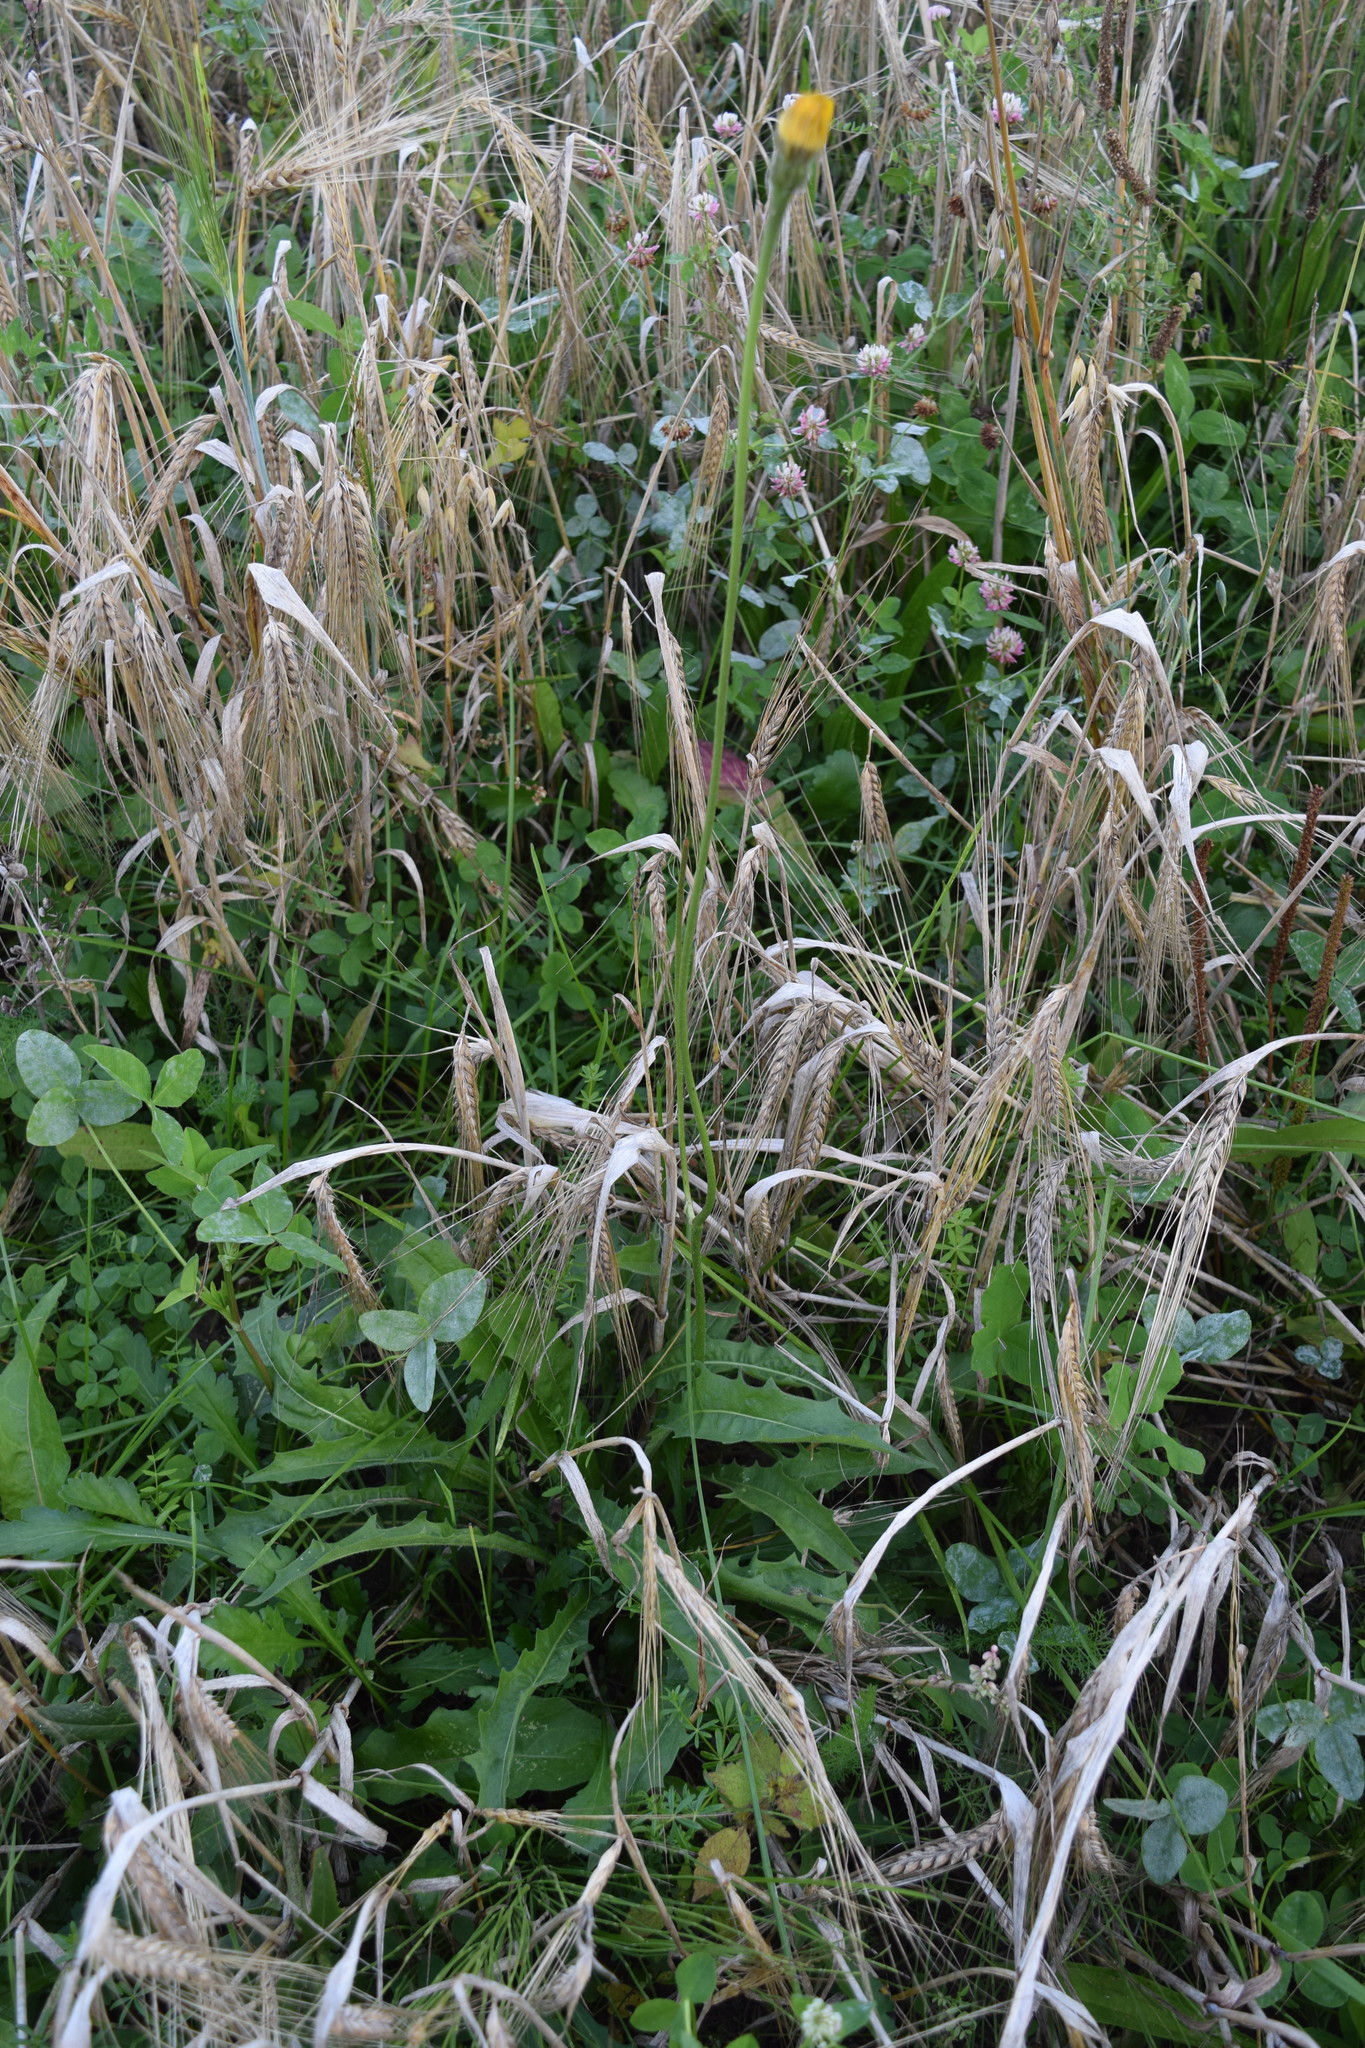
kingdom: Plantae
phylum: Tracheophyta
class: Magnoliopsida
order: Asterales
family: Asteraceae
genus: Leontodon
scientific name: Leontodon hispidus
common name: Rough hawkbit
